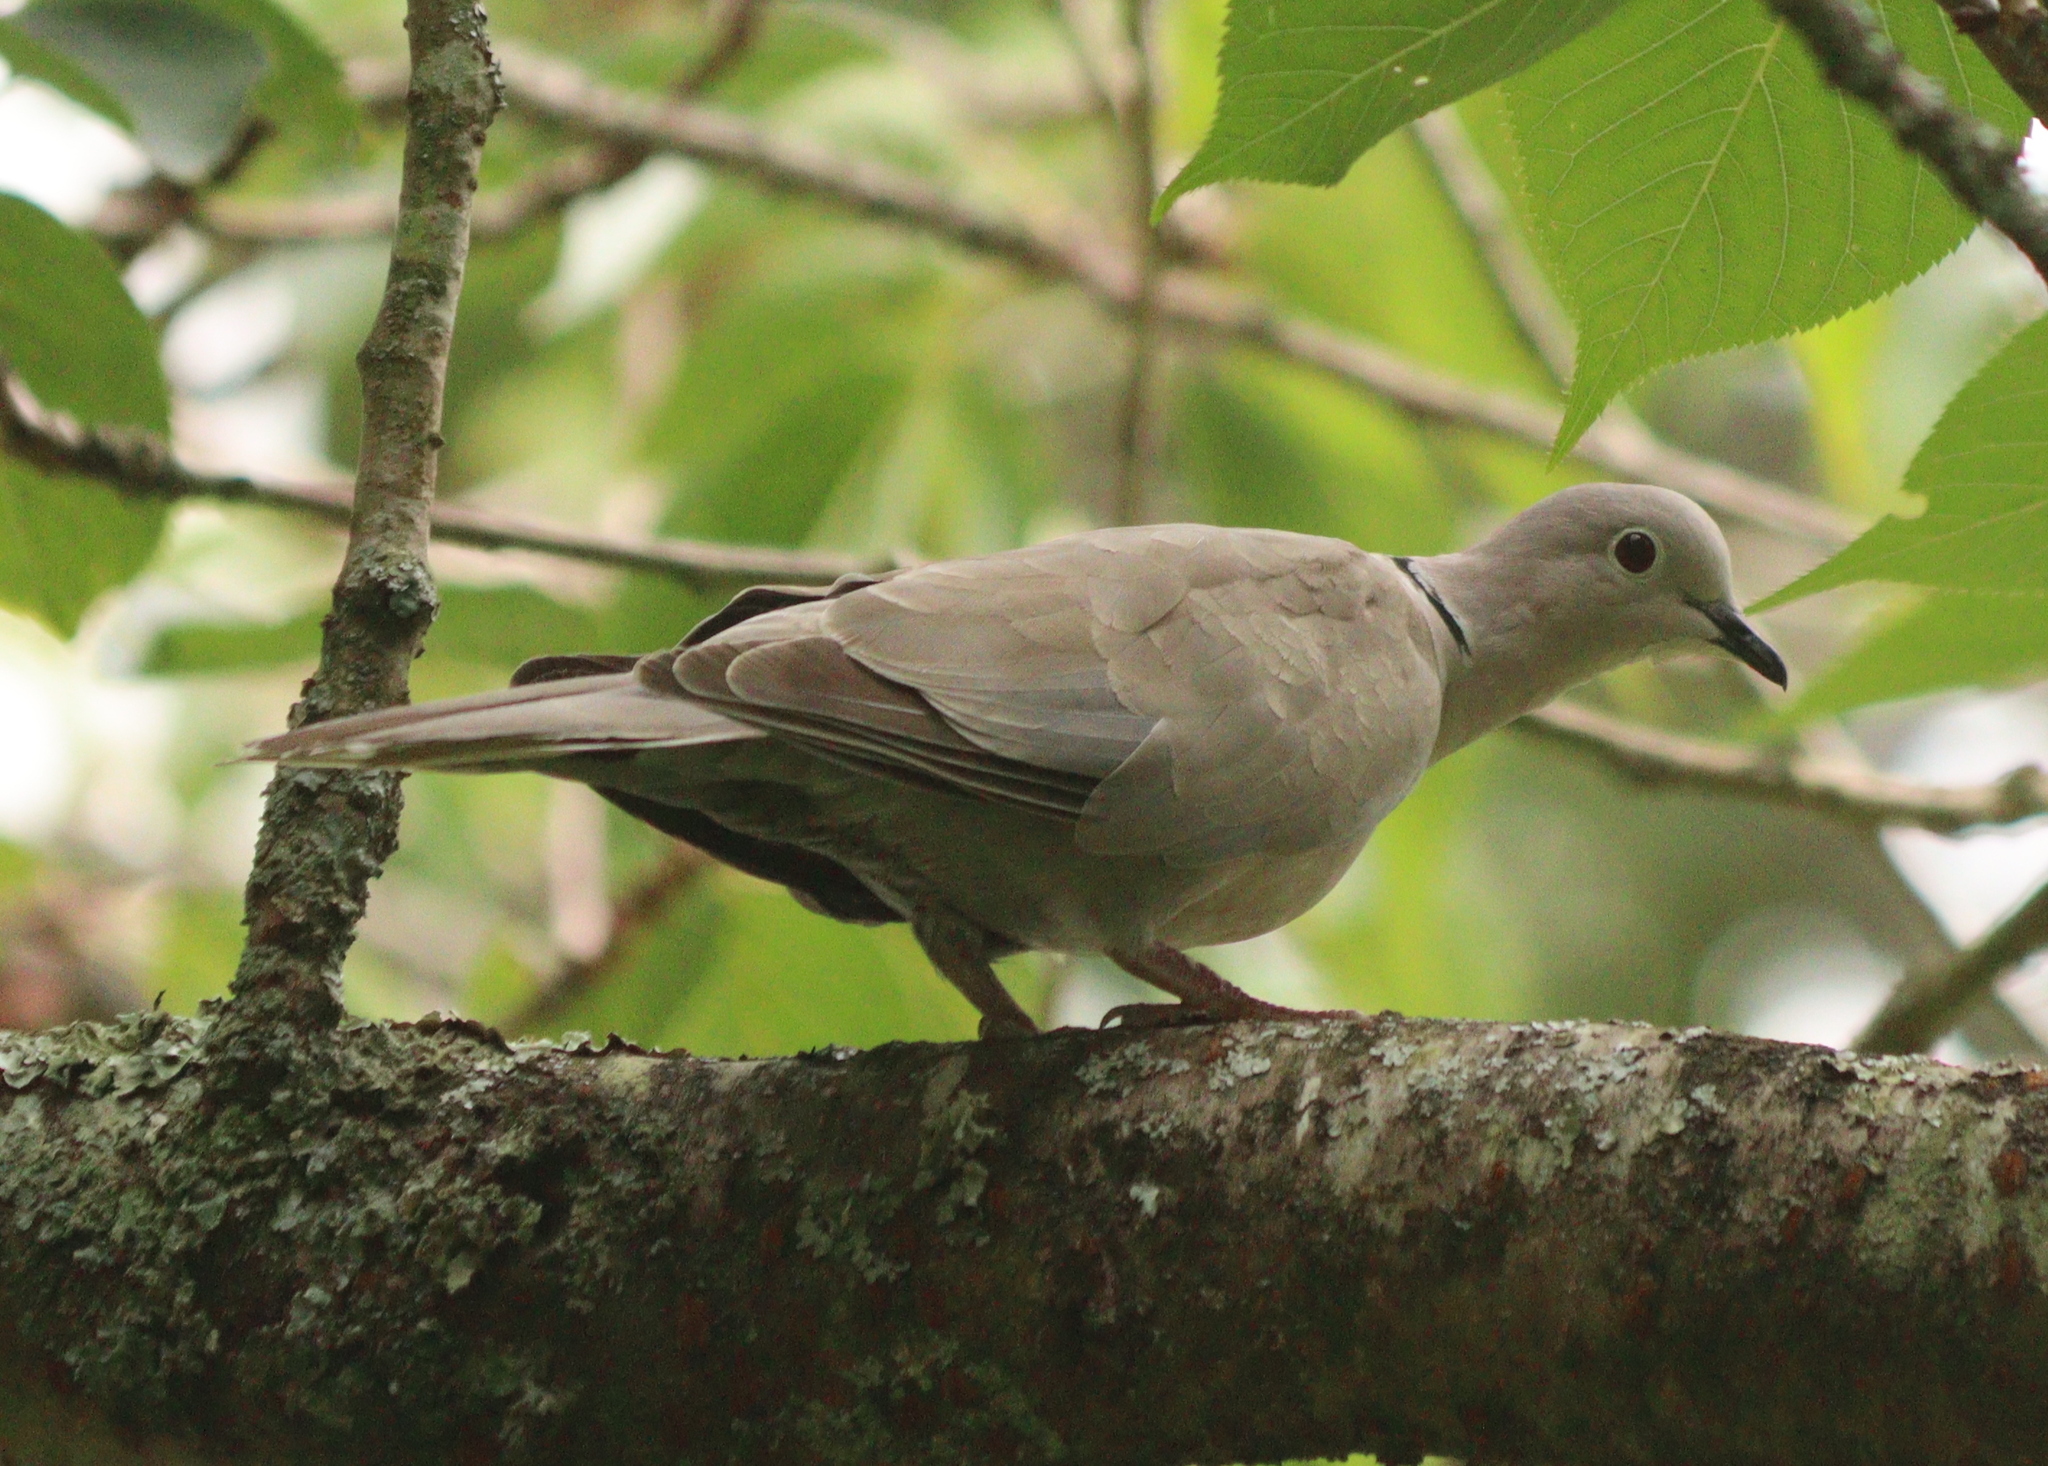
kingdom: Animalia
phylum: Chordata
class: Aves
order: Columbiformes
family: Columbidae
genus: Streptopelia
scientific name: Streptopelia decaocto
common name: Eurasian collared dove
